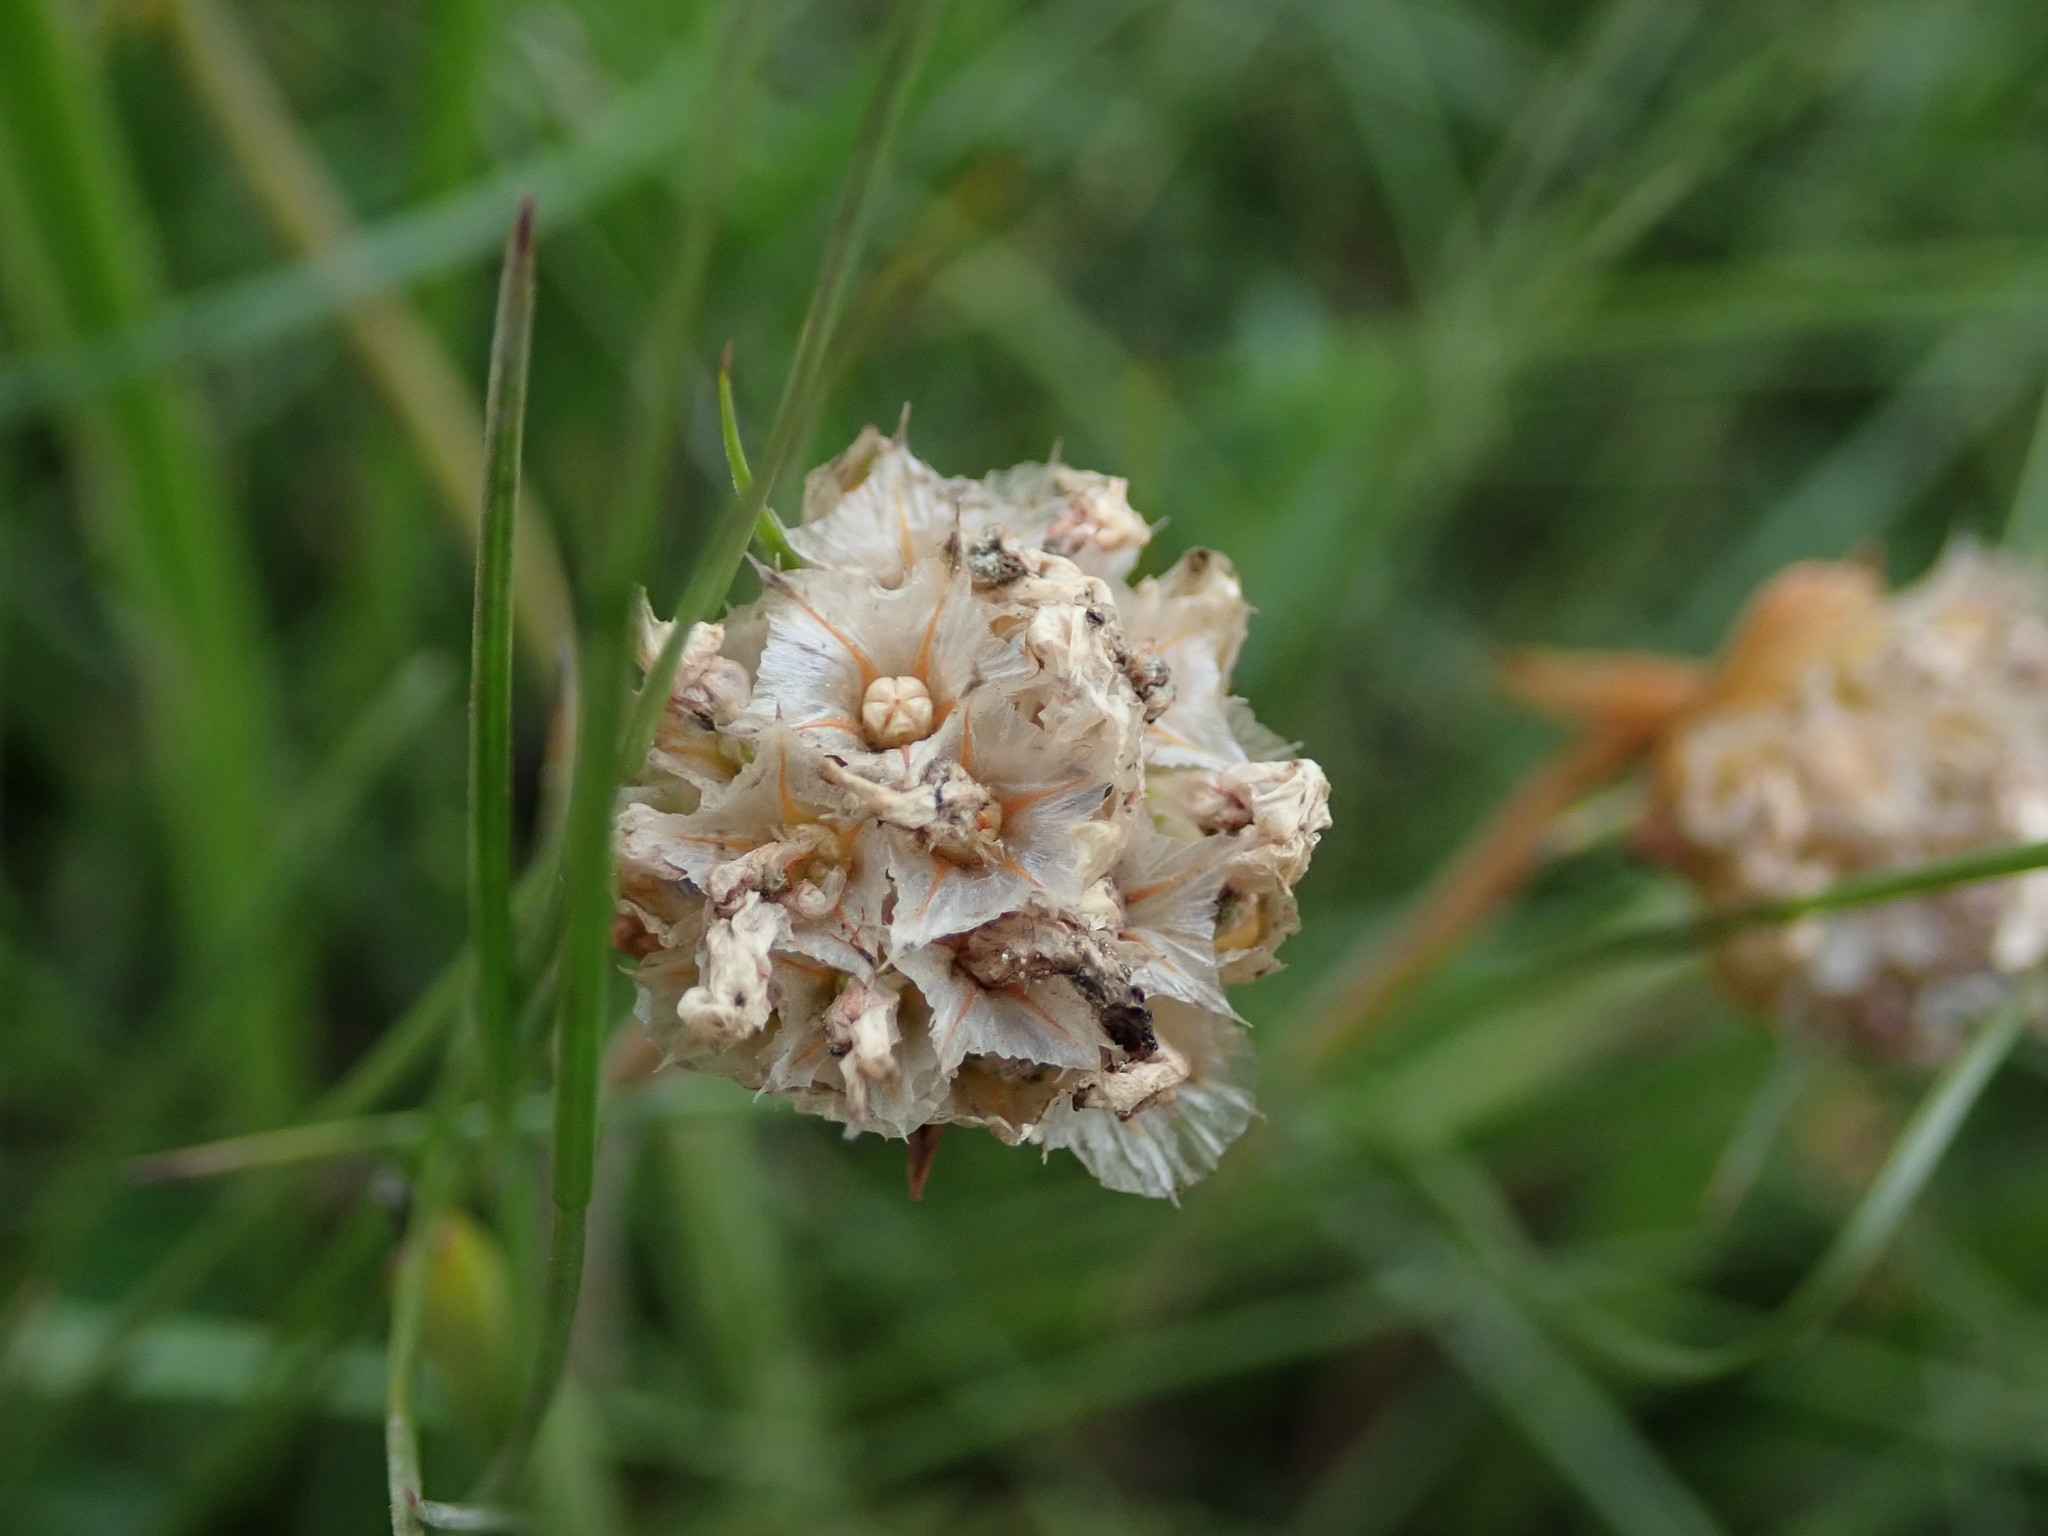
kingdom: Plantae
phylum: Tracheophyta
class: Magnoliopsida
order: Caryophyllales
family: Plumbaginaceae
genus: Armeria
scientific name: Armeria maritima
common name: Thrift
